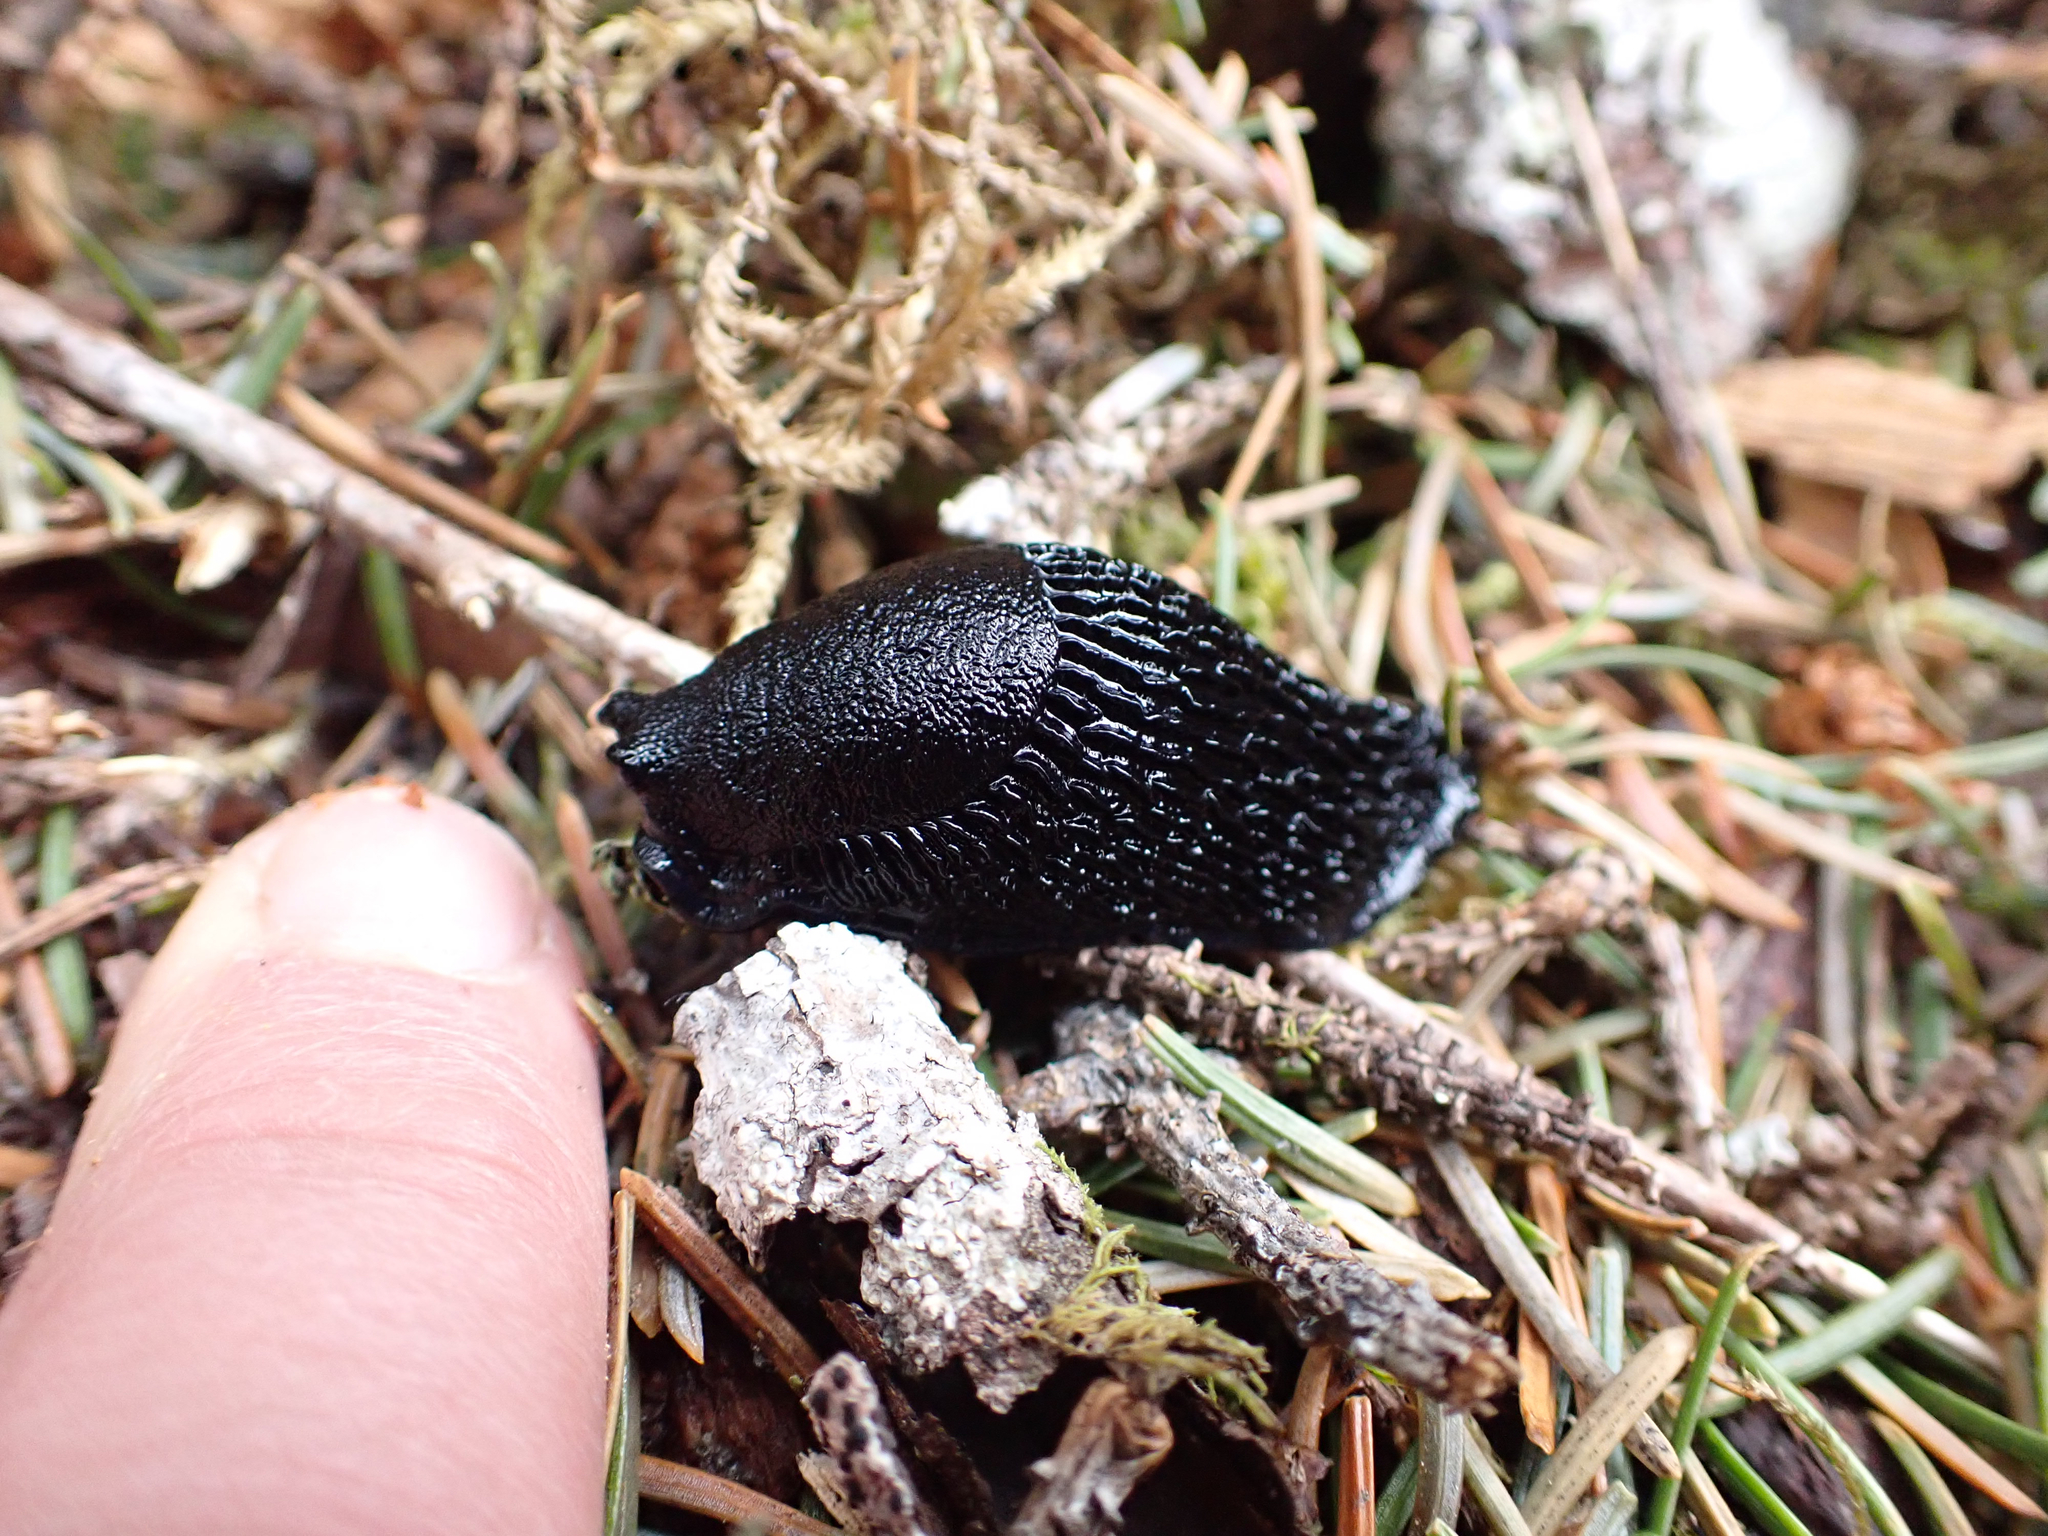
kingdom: Animalia
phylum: Mollusca
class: Gastropoda
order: Stylommatophora
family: Arionidae
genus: Arion
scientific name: Arion
